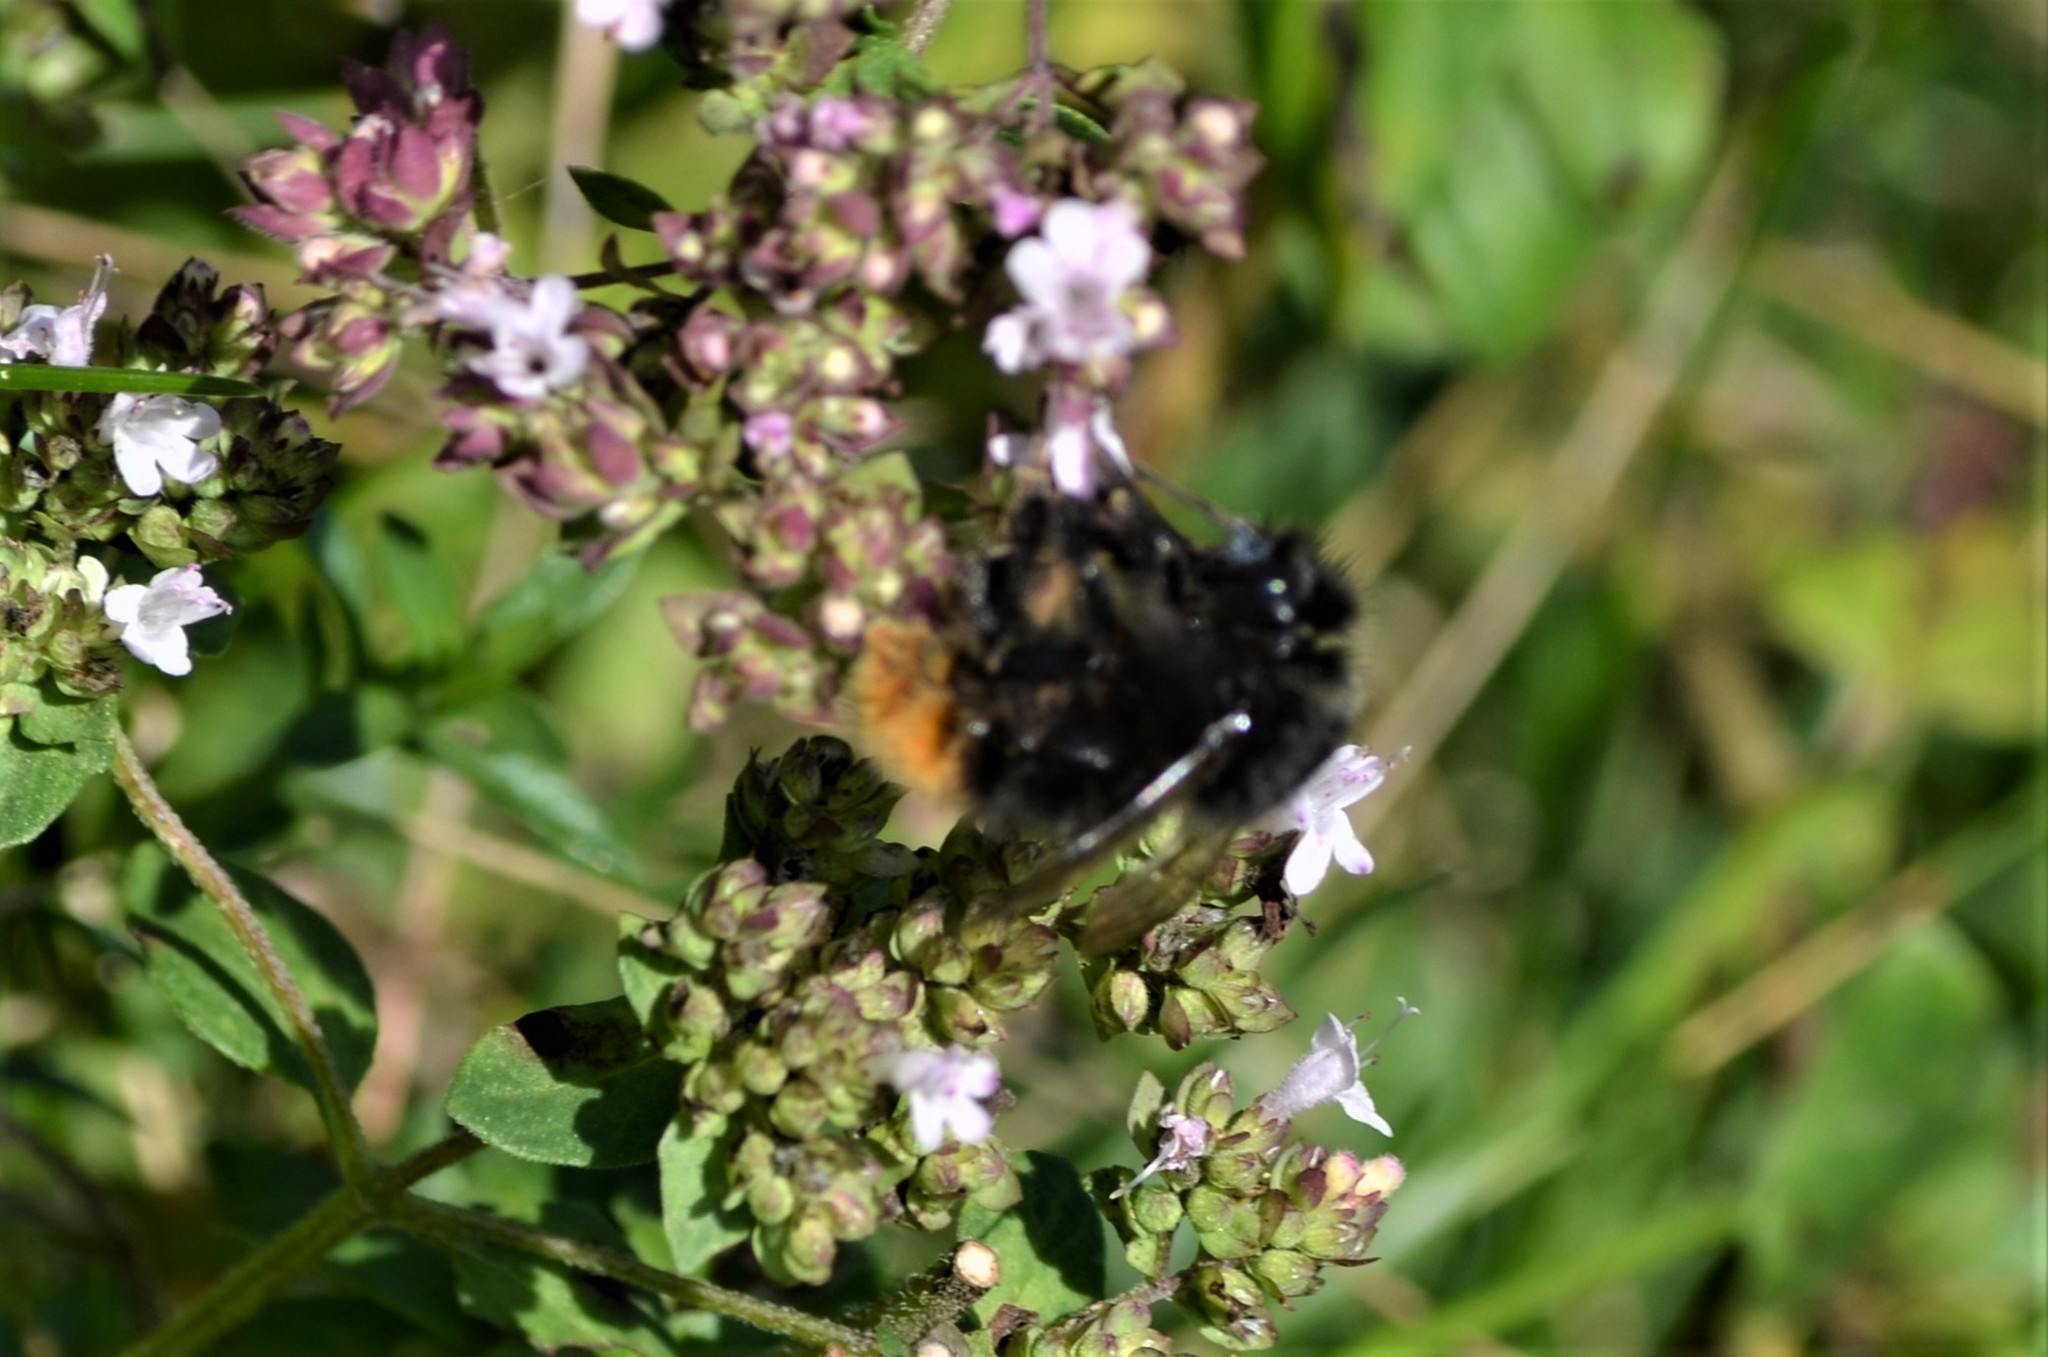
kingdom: Animalia
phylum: Arthropoda
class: Insecta
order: Hymenoptera
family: Apidae
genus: Bombus
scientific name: Bombus wurflenii
